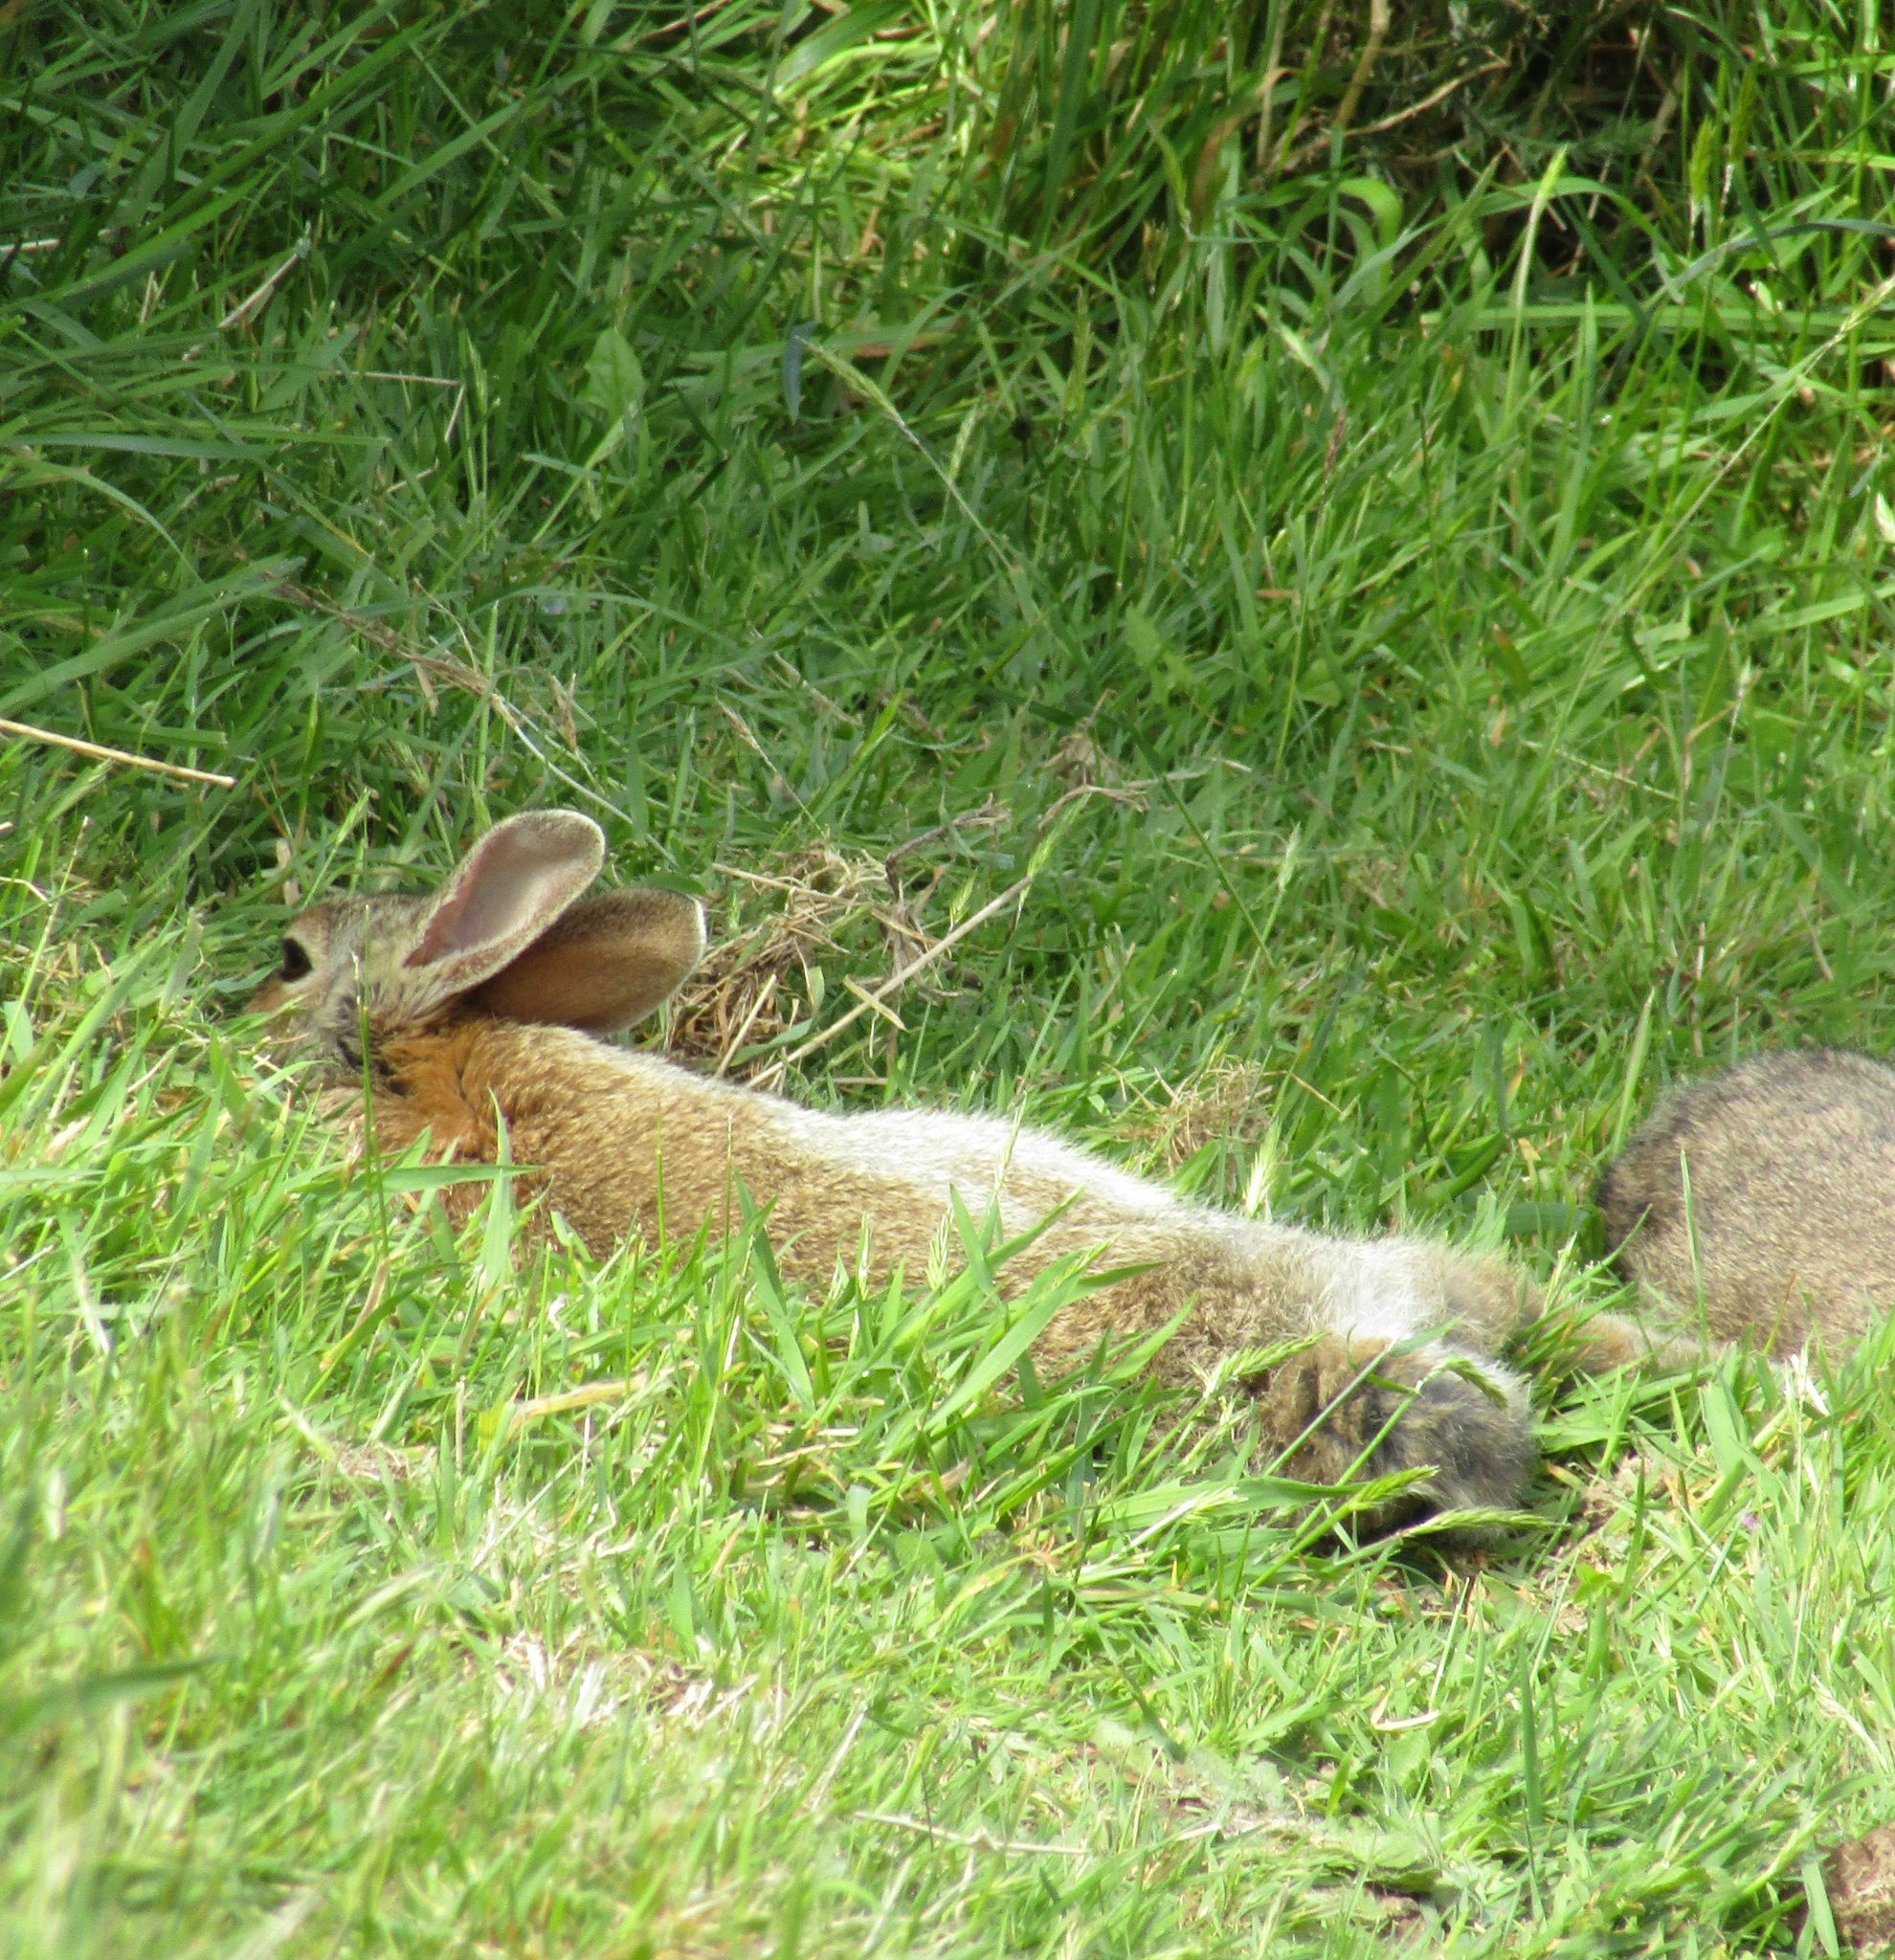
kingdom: Animalia
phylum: Chordata
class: Mammalia
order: Lagomorpha
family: Leporidae
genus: Oryctolagus
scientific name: Oryctolagus cuniculus
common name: European rabbit
